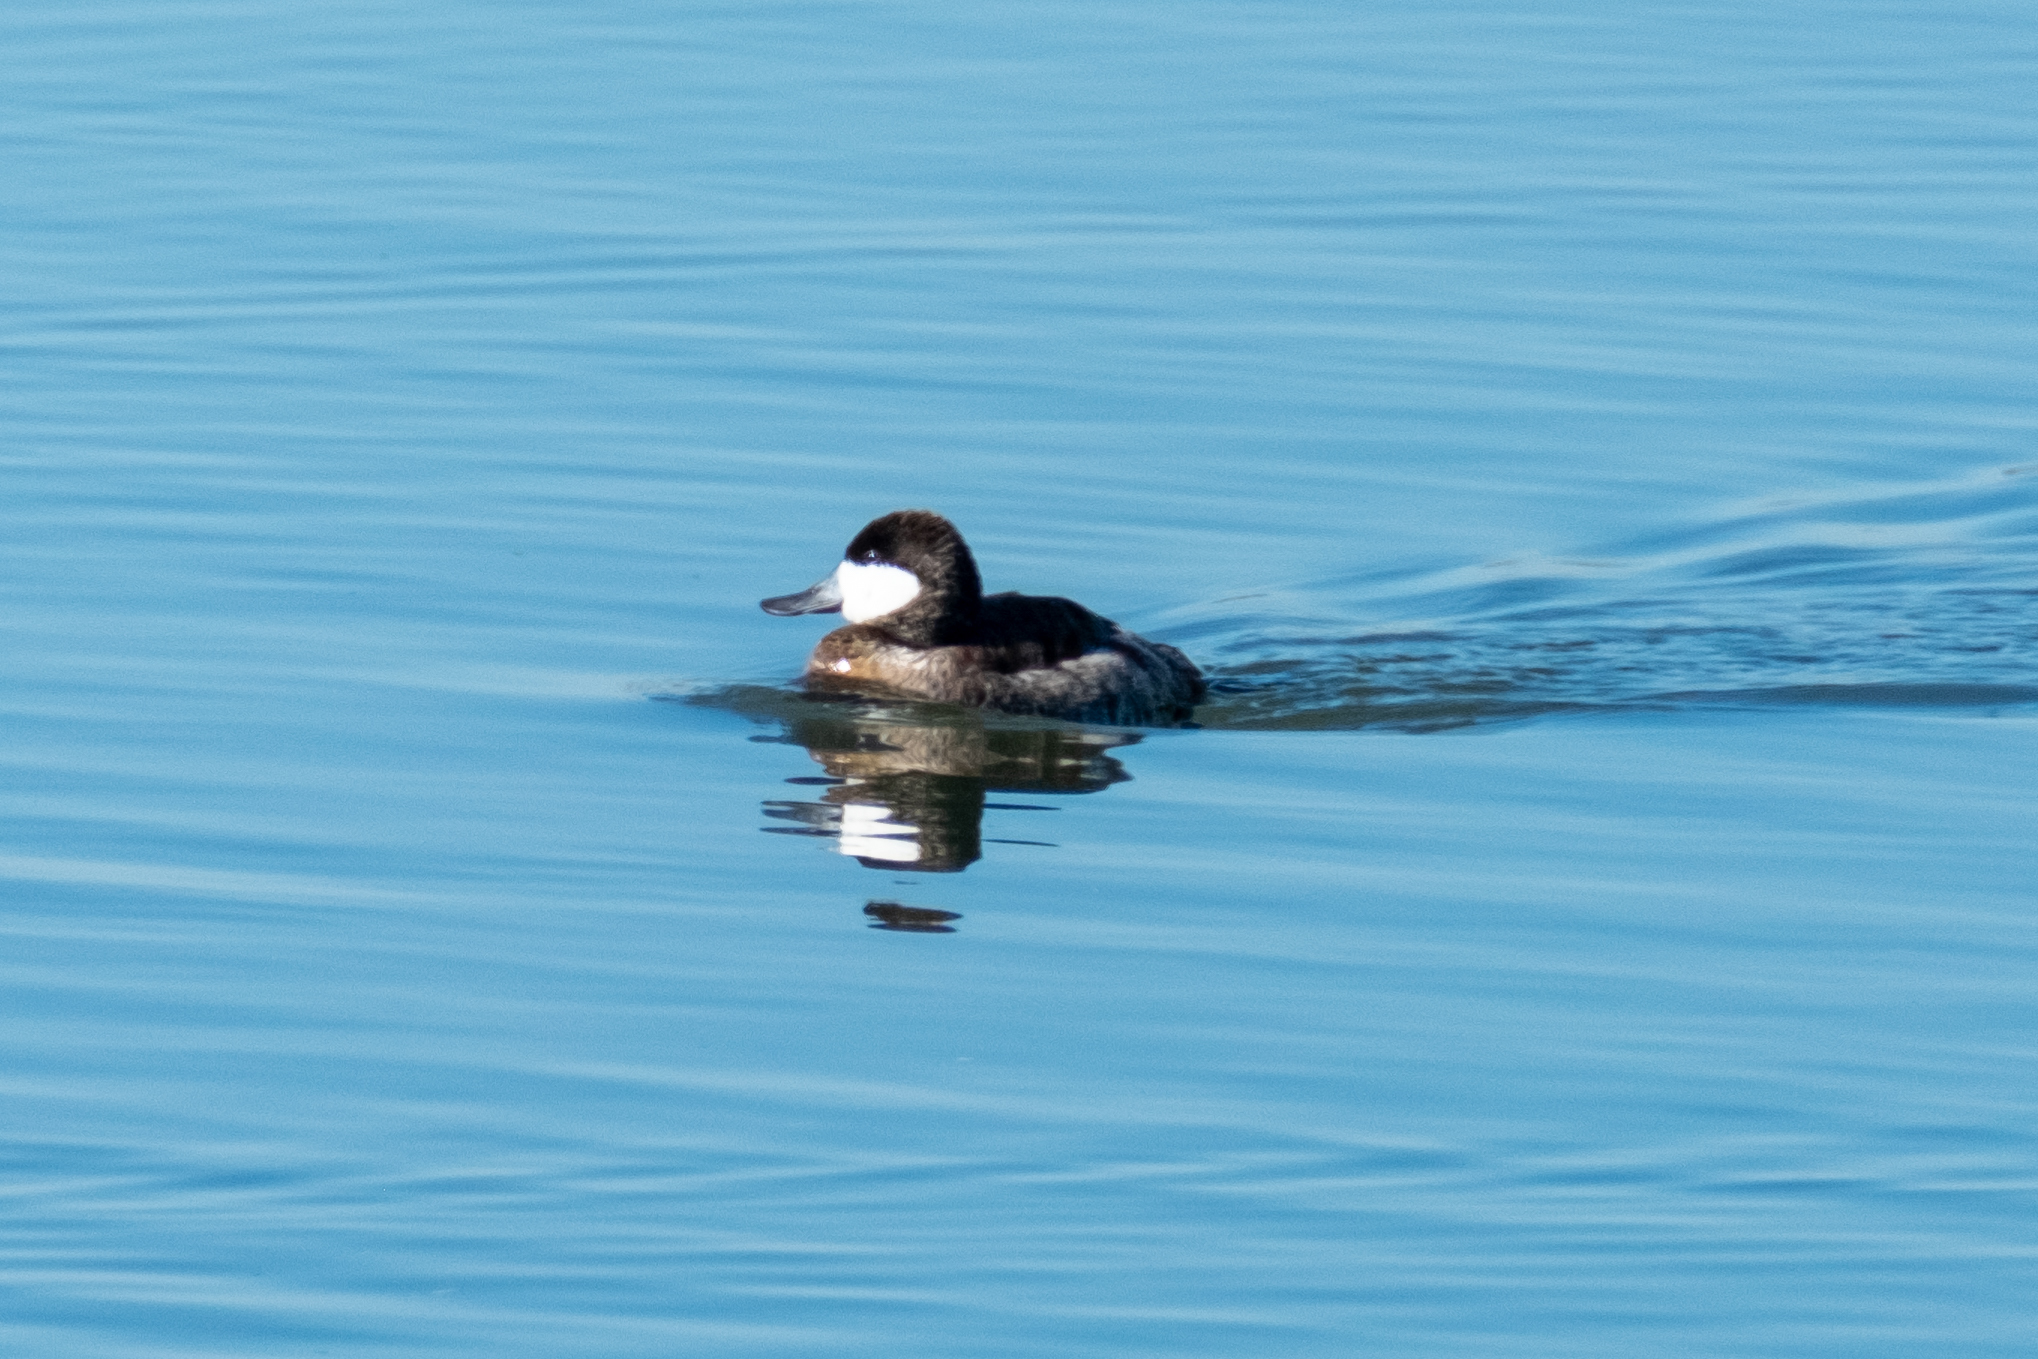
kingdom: Animalia
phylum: Chordata
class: Aves
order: Anseriformes
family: Anatidae
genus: Oxyura
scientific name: Oxyura jamaicensis
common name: Ruddy duck
